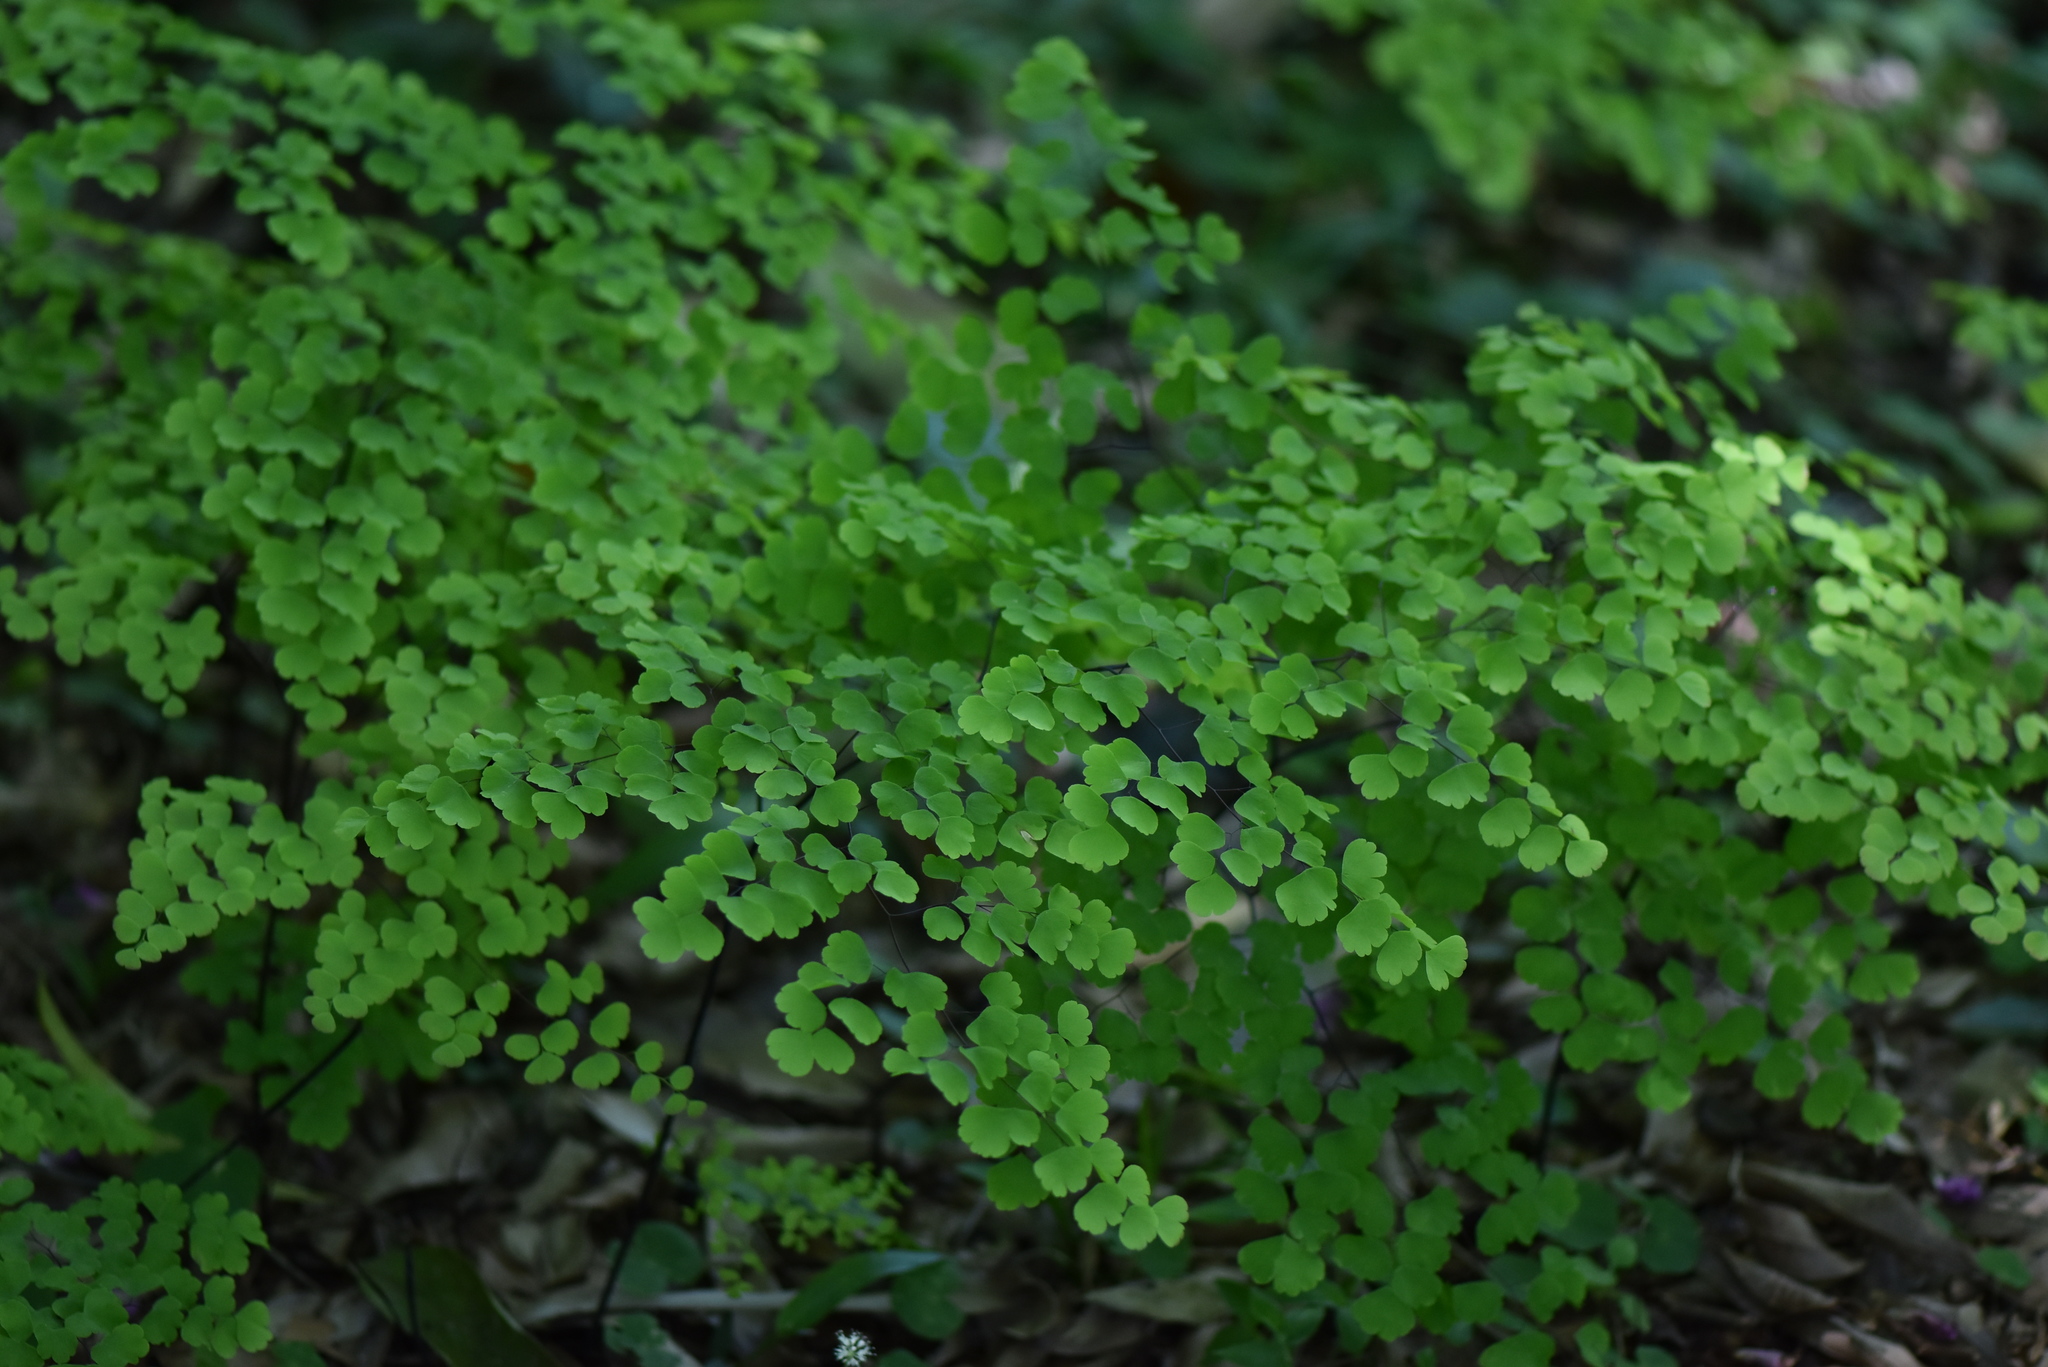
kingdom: Plantae
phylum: Tracheophyta
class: Polypodiopsida
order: Polypodiales
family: Pteridaceae
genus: Adiantum
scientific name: Adiantum capillus-veneris
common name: Maidenhair fern
